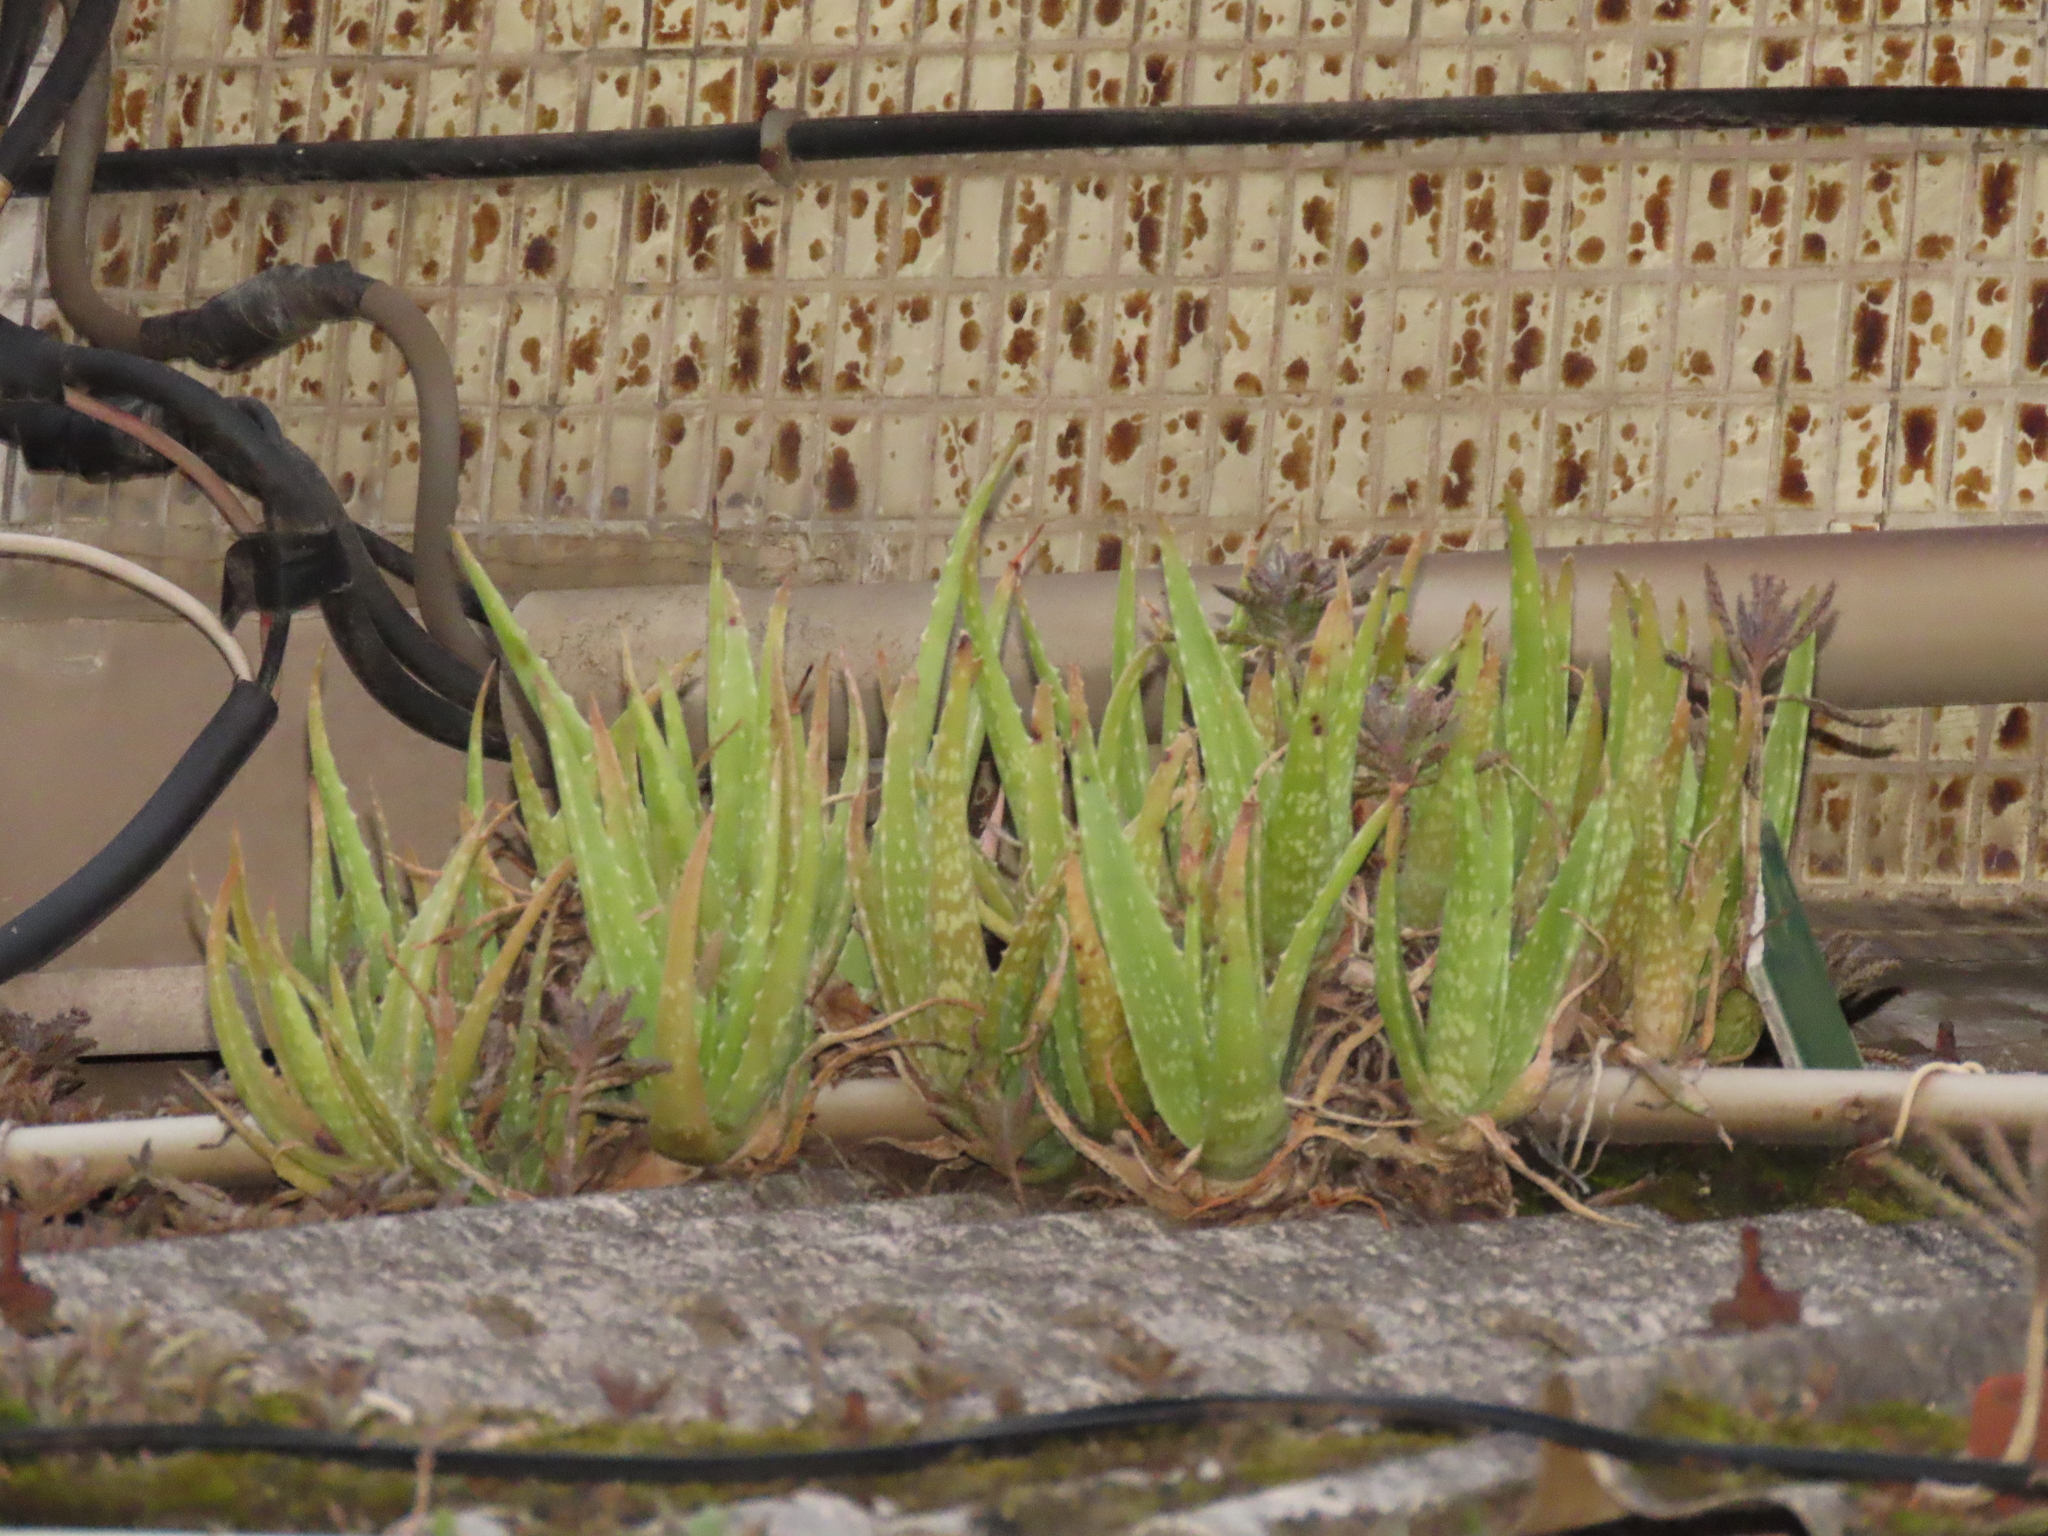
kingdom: Plantae
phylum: Tracheophyta
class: Liliopsida
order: Asparagales
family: Asphodelaceae
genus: Aloe
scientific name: Aloe vera
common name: Barbados aloe
